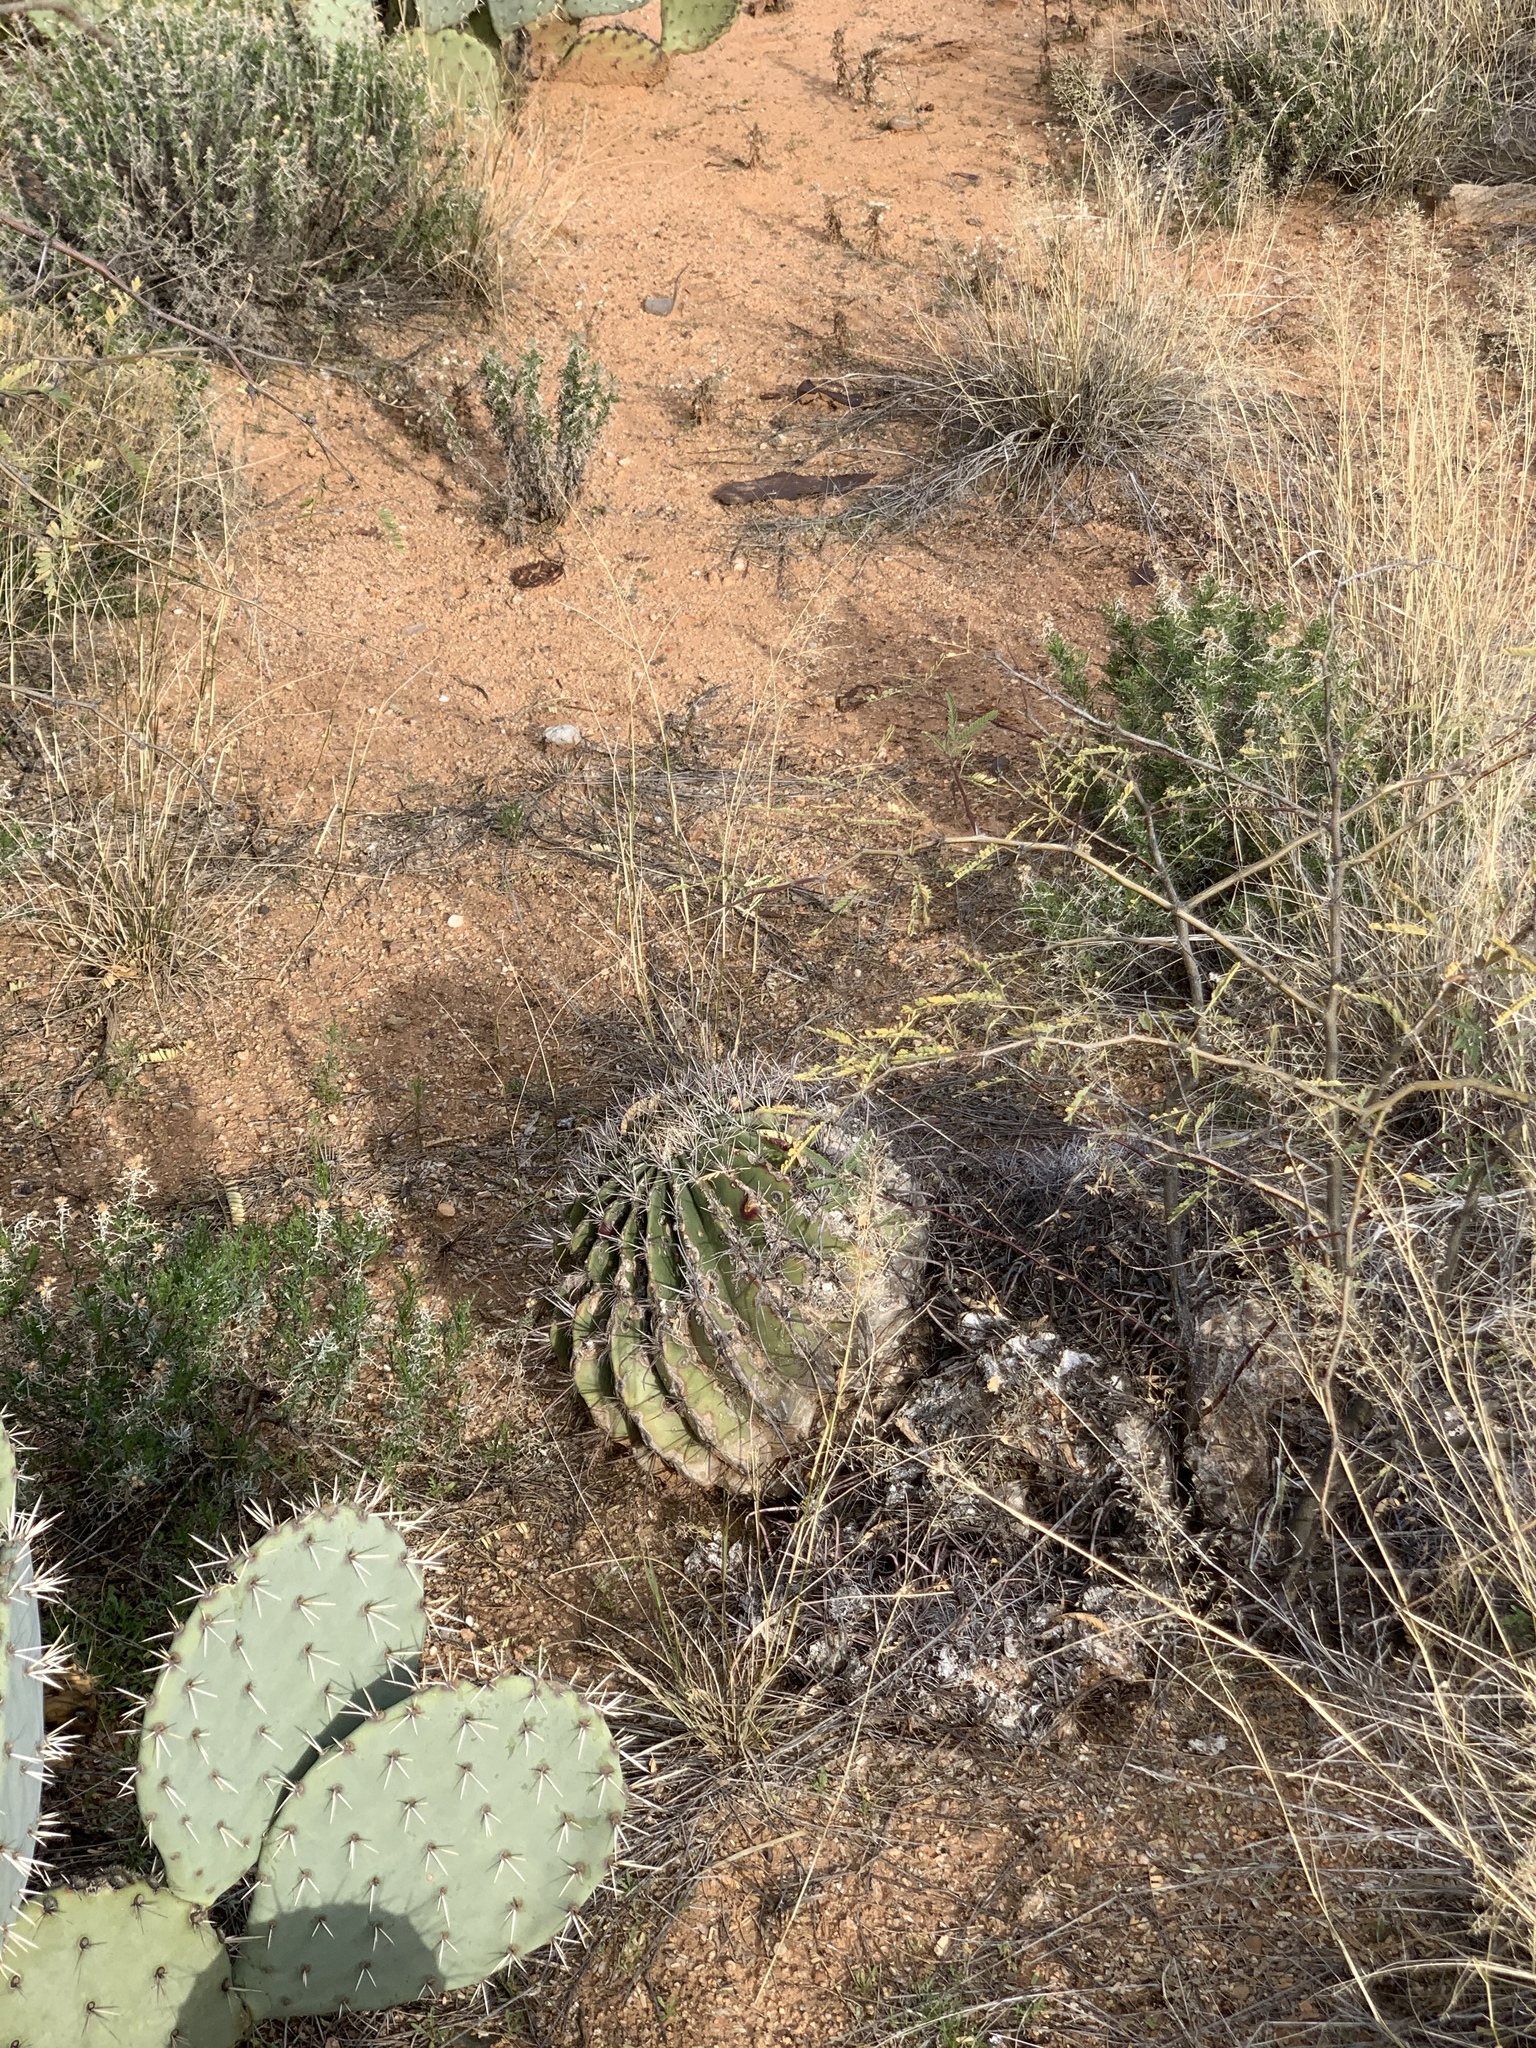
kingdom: Plantae
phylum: Tracheophyta
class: Magnoliopsida
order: Caryophyllales
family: Cactaceae
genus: Ferocactus
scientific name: Ferocactus wislizeni
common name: Candy barrel cactus
